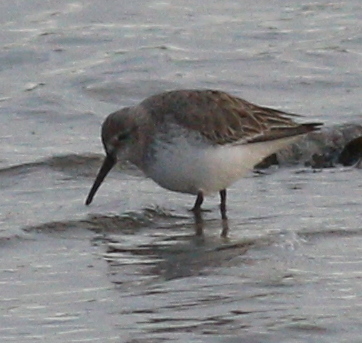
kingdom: Animalia
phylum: Chordata
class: Aves
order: Charadriiformes
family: Scolopacidae
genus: Calidris
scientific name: Calidris alpina
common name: Dunlin
